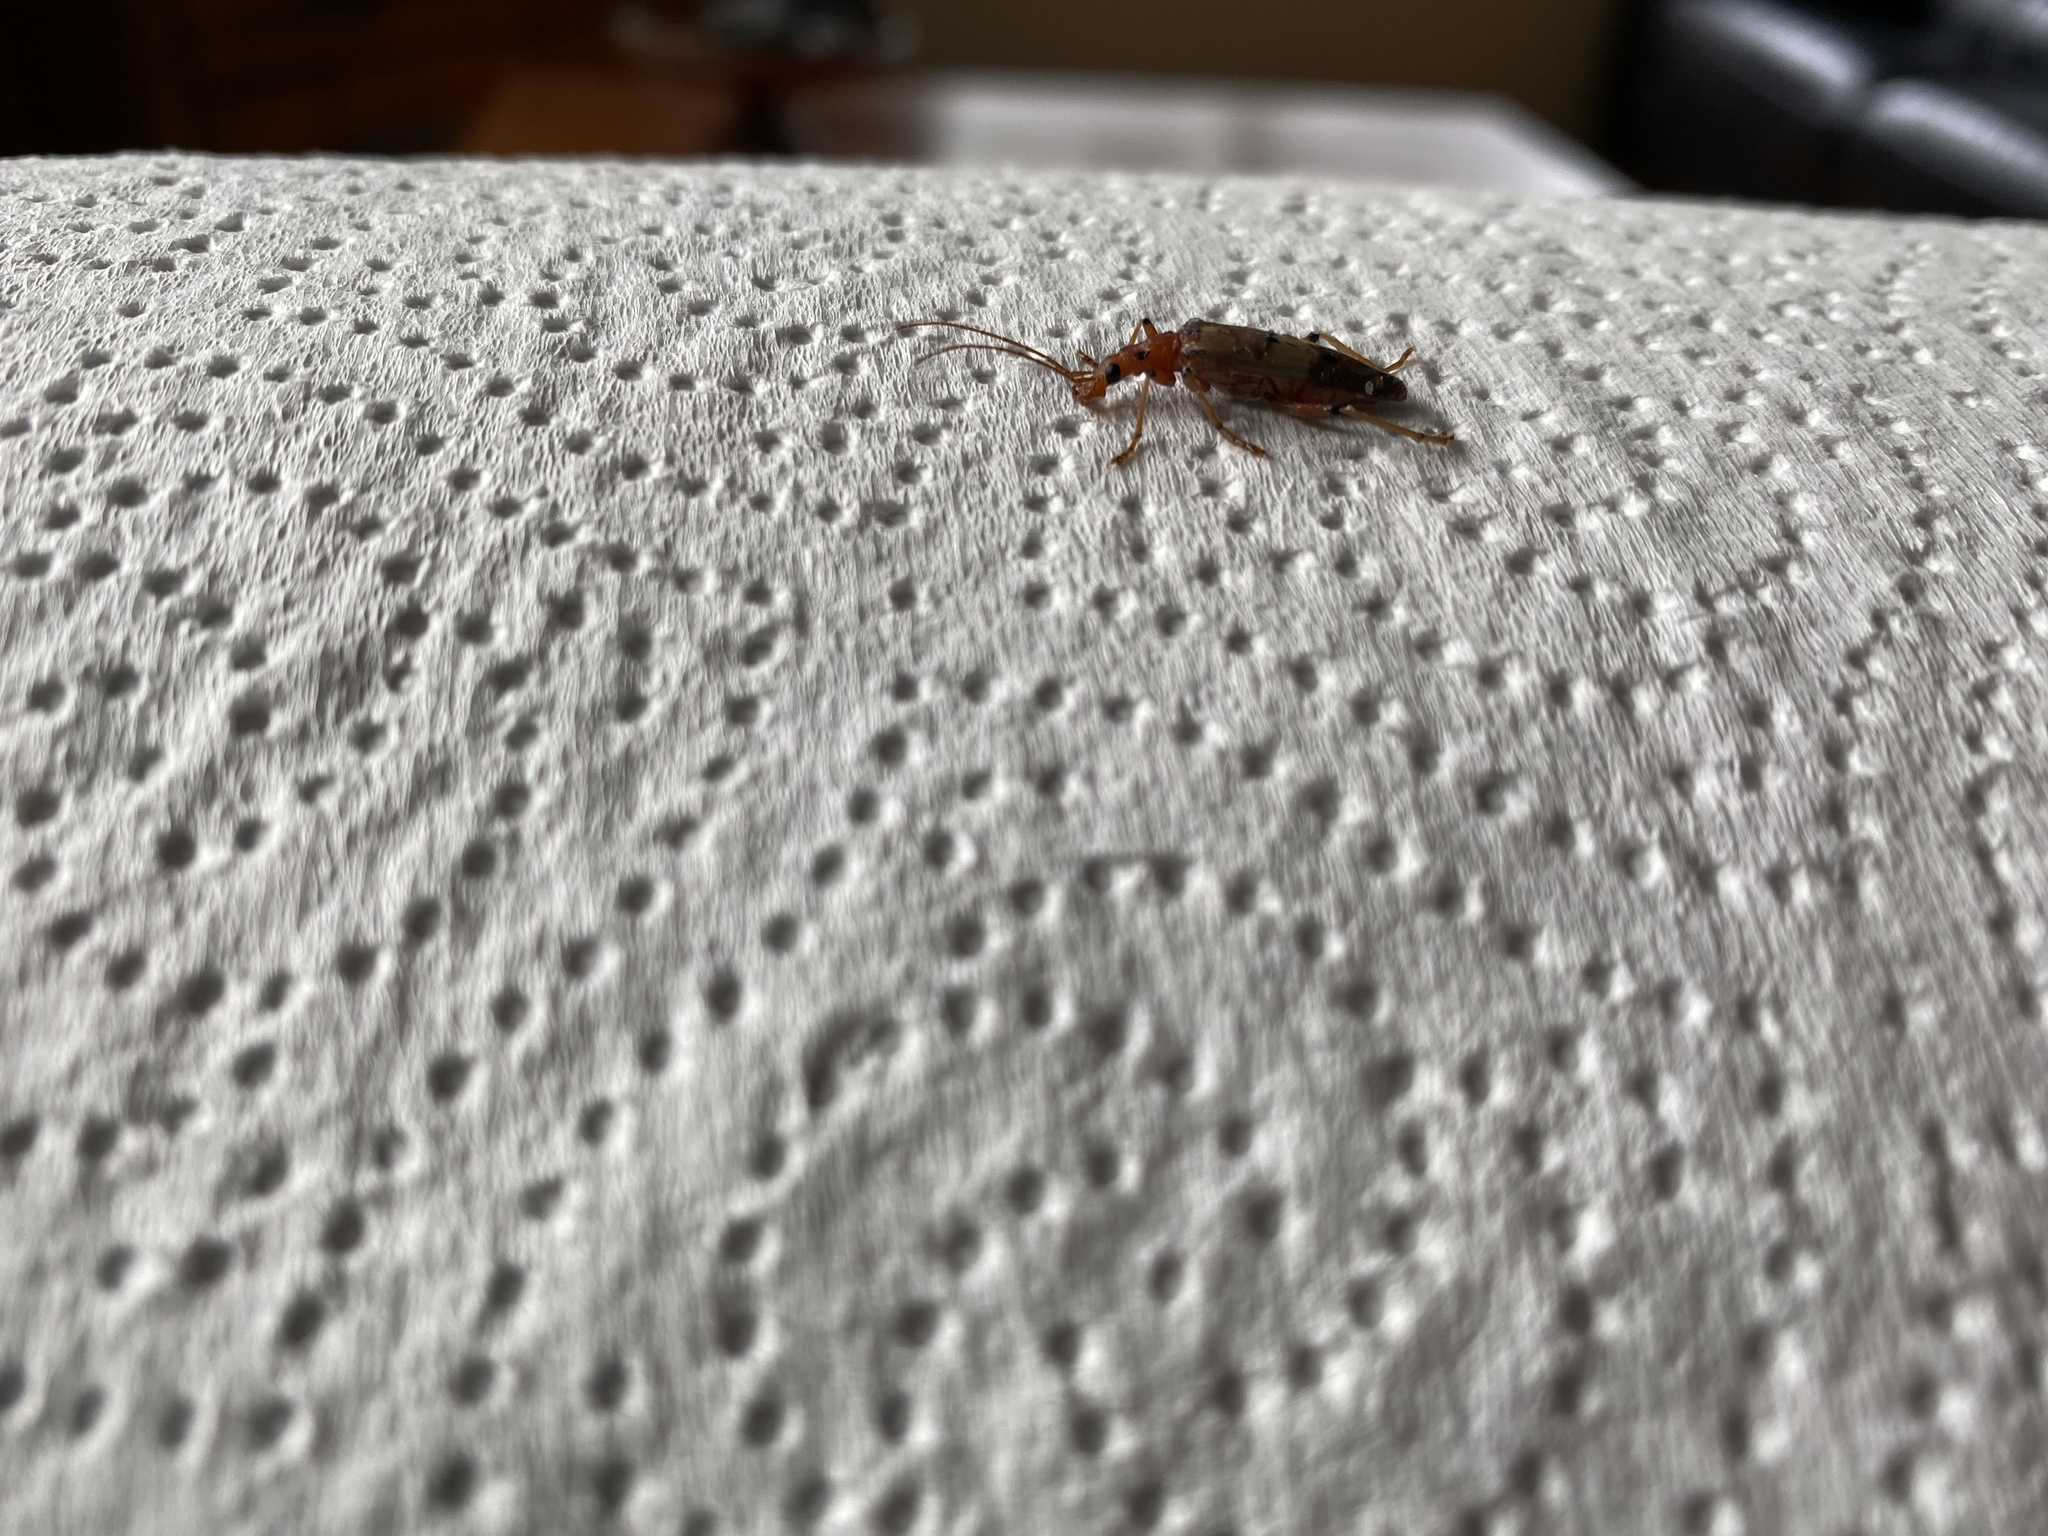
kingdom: Animalia
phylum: Arthropoda
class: Insecta
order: Coleoptera
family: Oedemeridae
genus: Parisopalpus
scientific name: Parisopalpus
